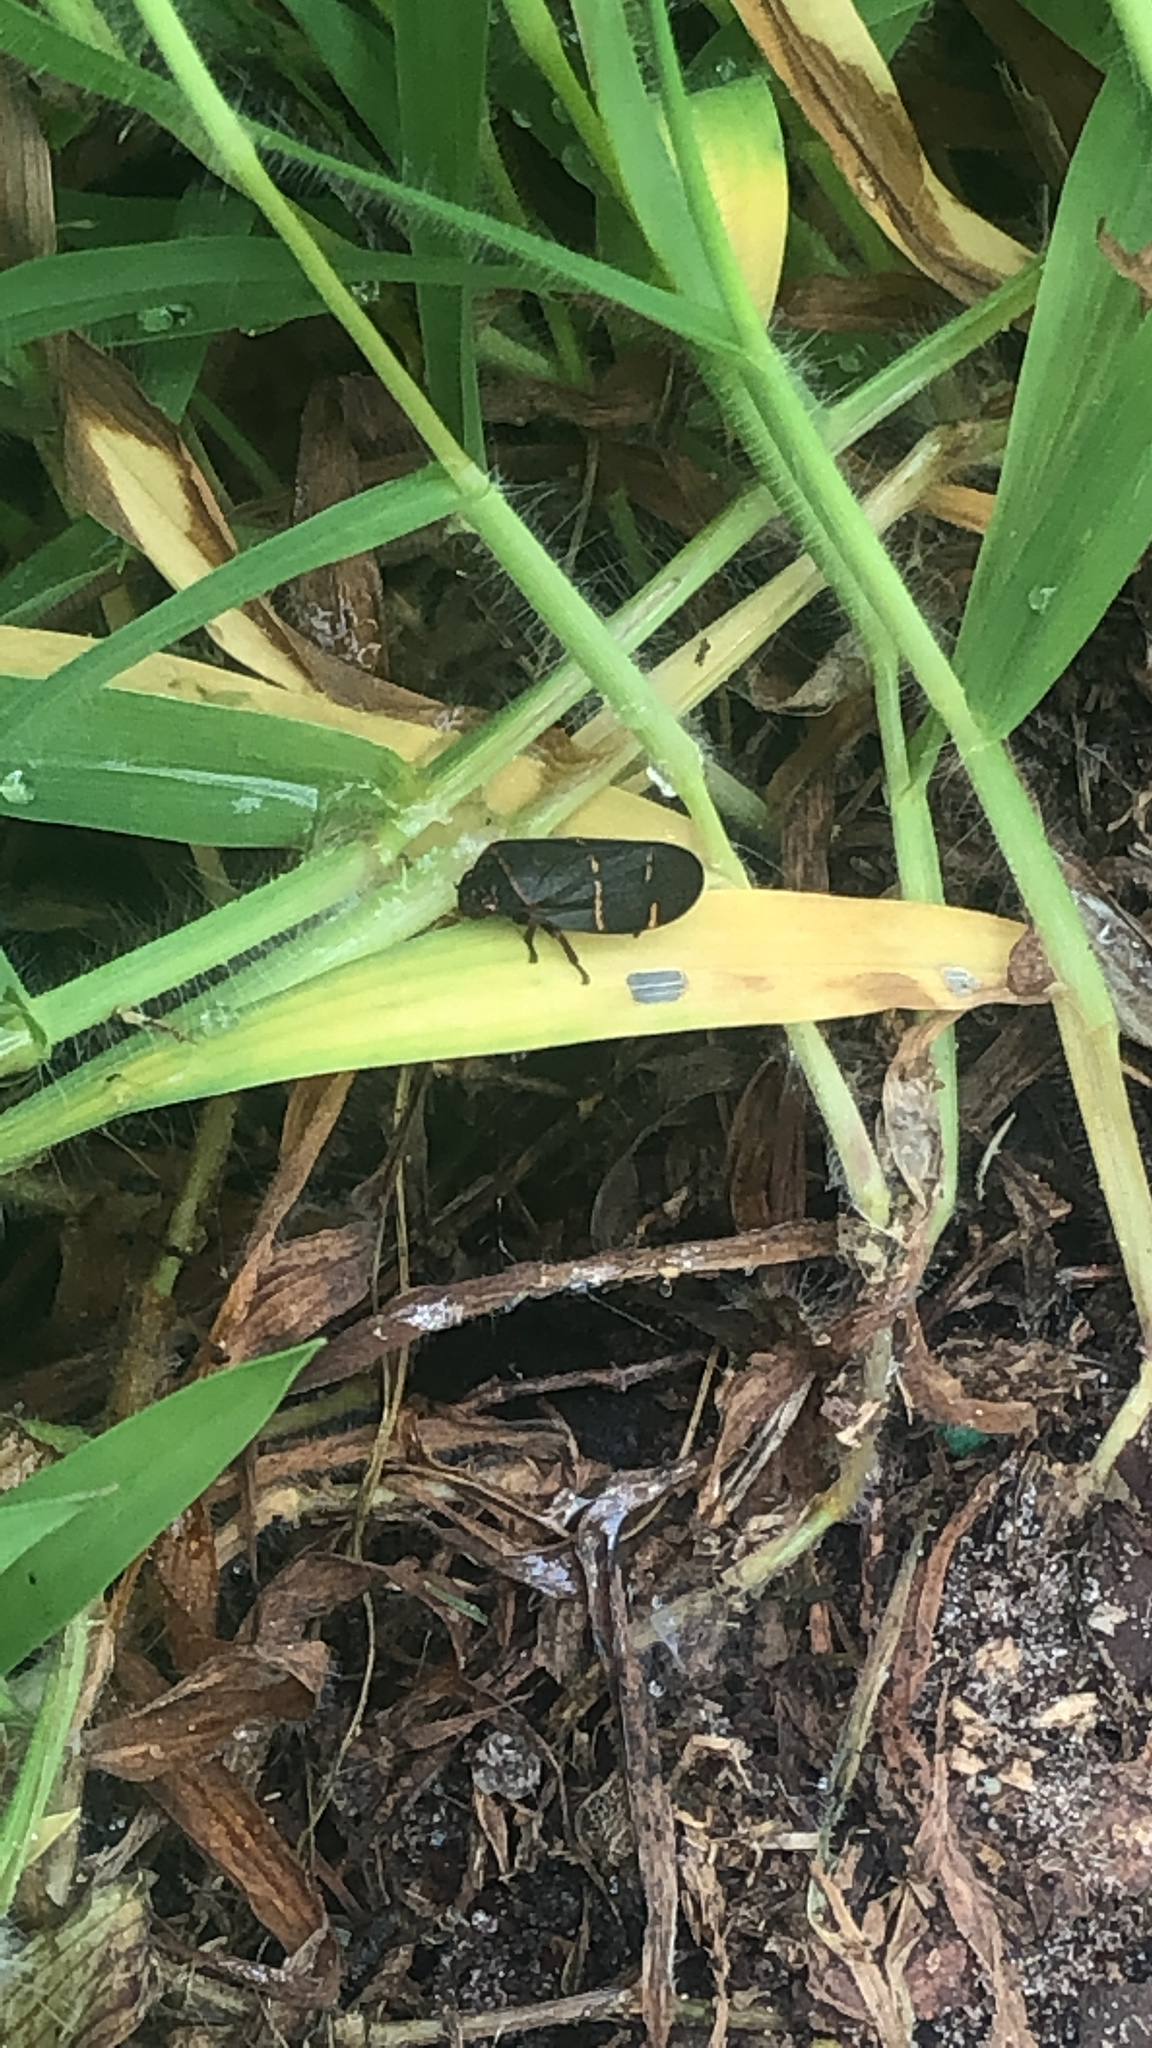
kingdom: Animalia
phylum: Arthropoda
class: Insecta
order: Hemiptera
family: Cercopidae
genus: Prosapia
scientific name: Prosapia bicincta
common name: Twolined spittlebug
